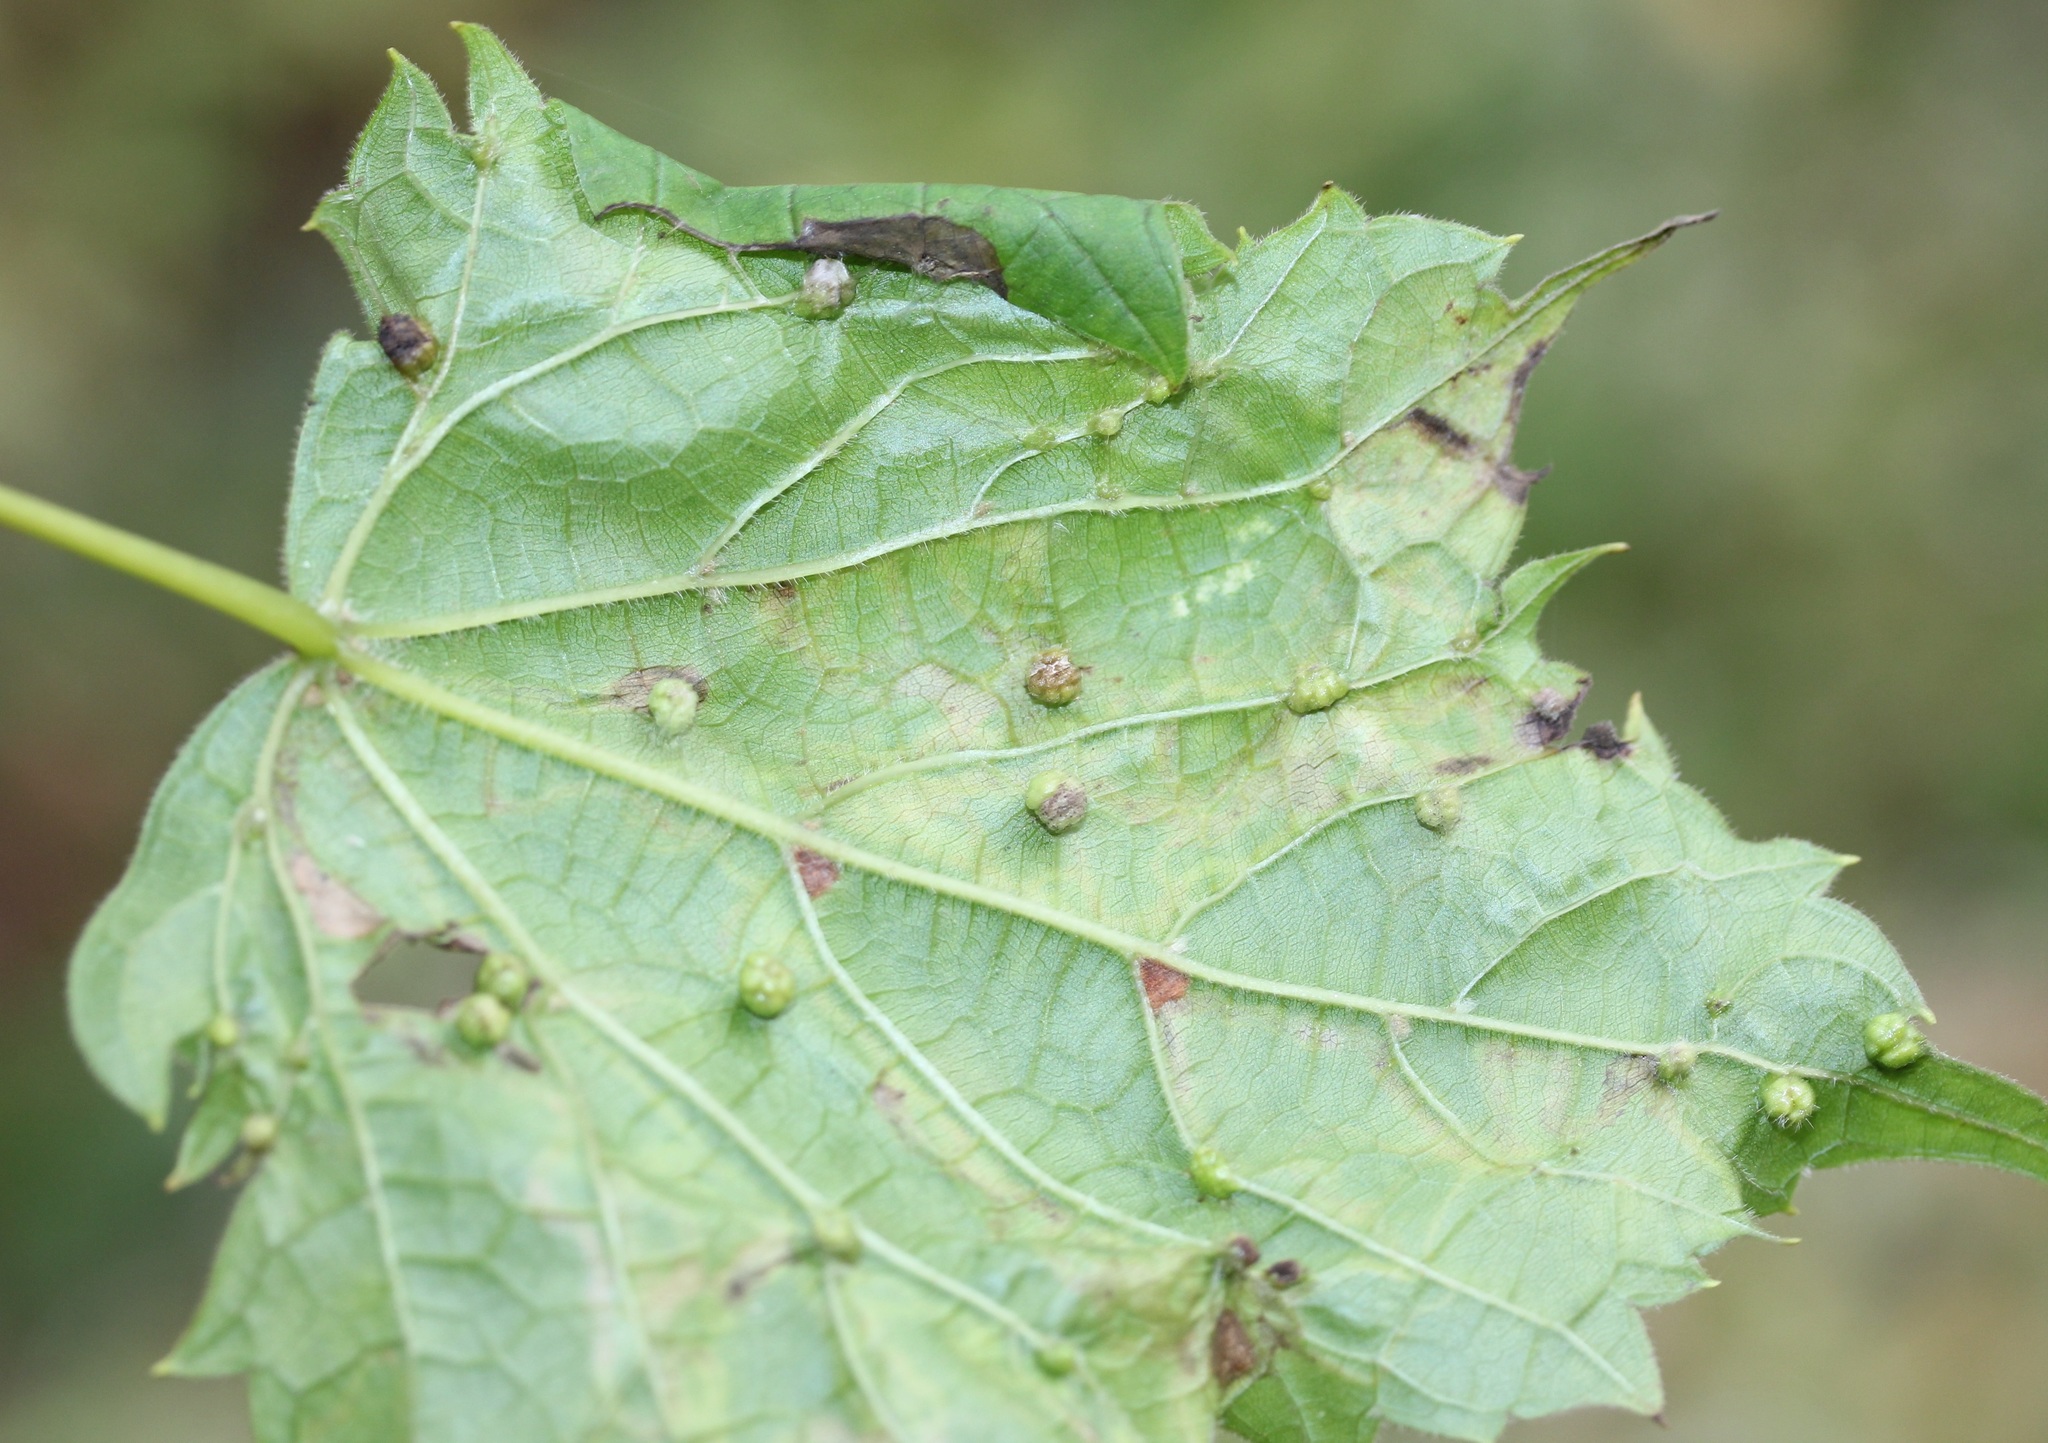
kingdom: Animalia
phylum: Arthropoda
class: Insecta
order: Hemiptera
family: Phylloxeridae
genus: Daktulosphaira
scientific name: Daktulosphaira vitifoliae
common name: Grape phylloxera
